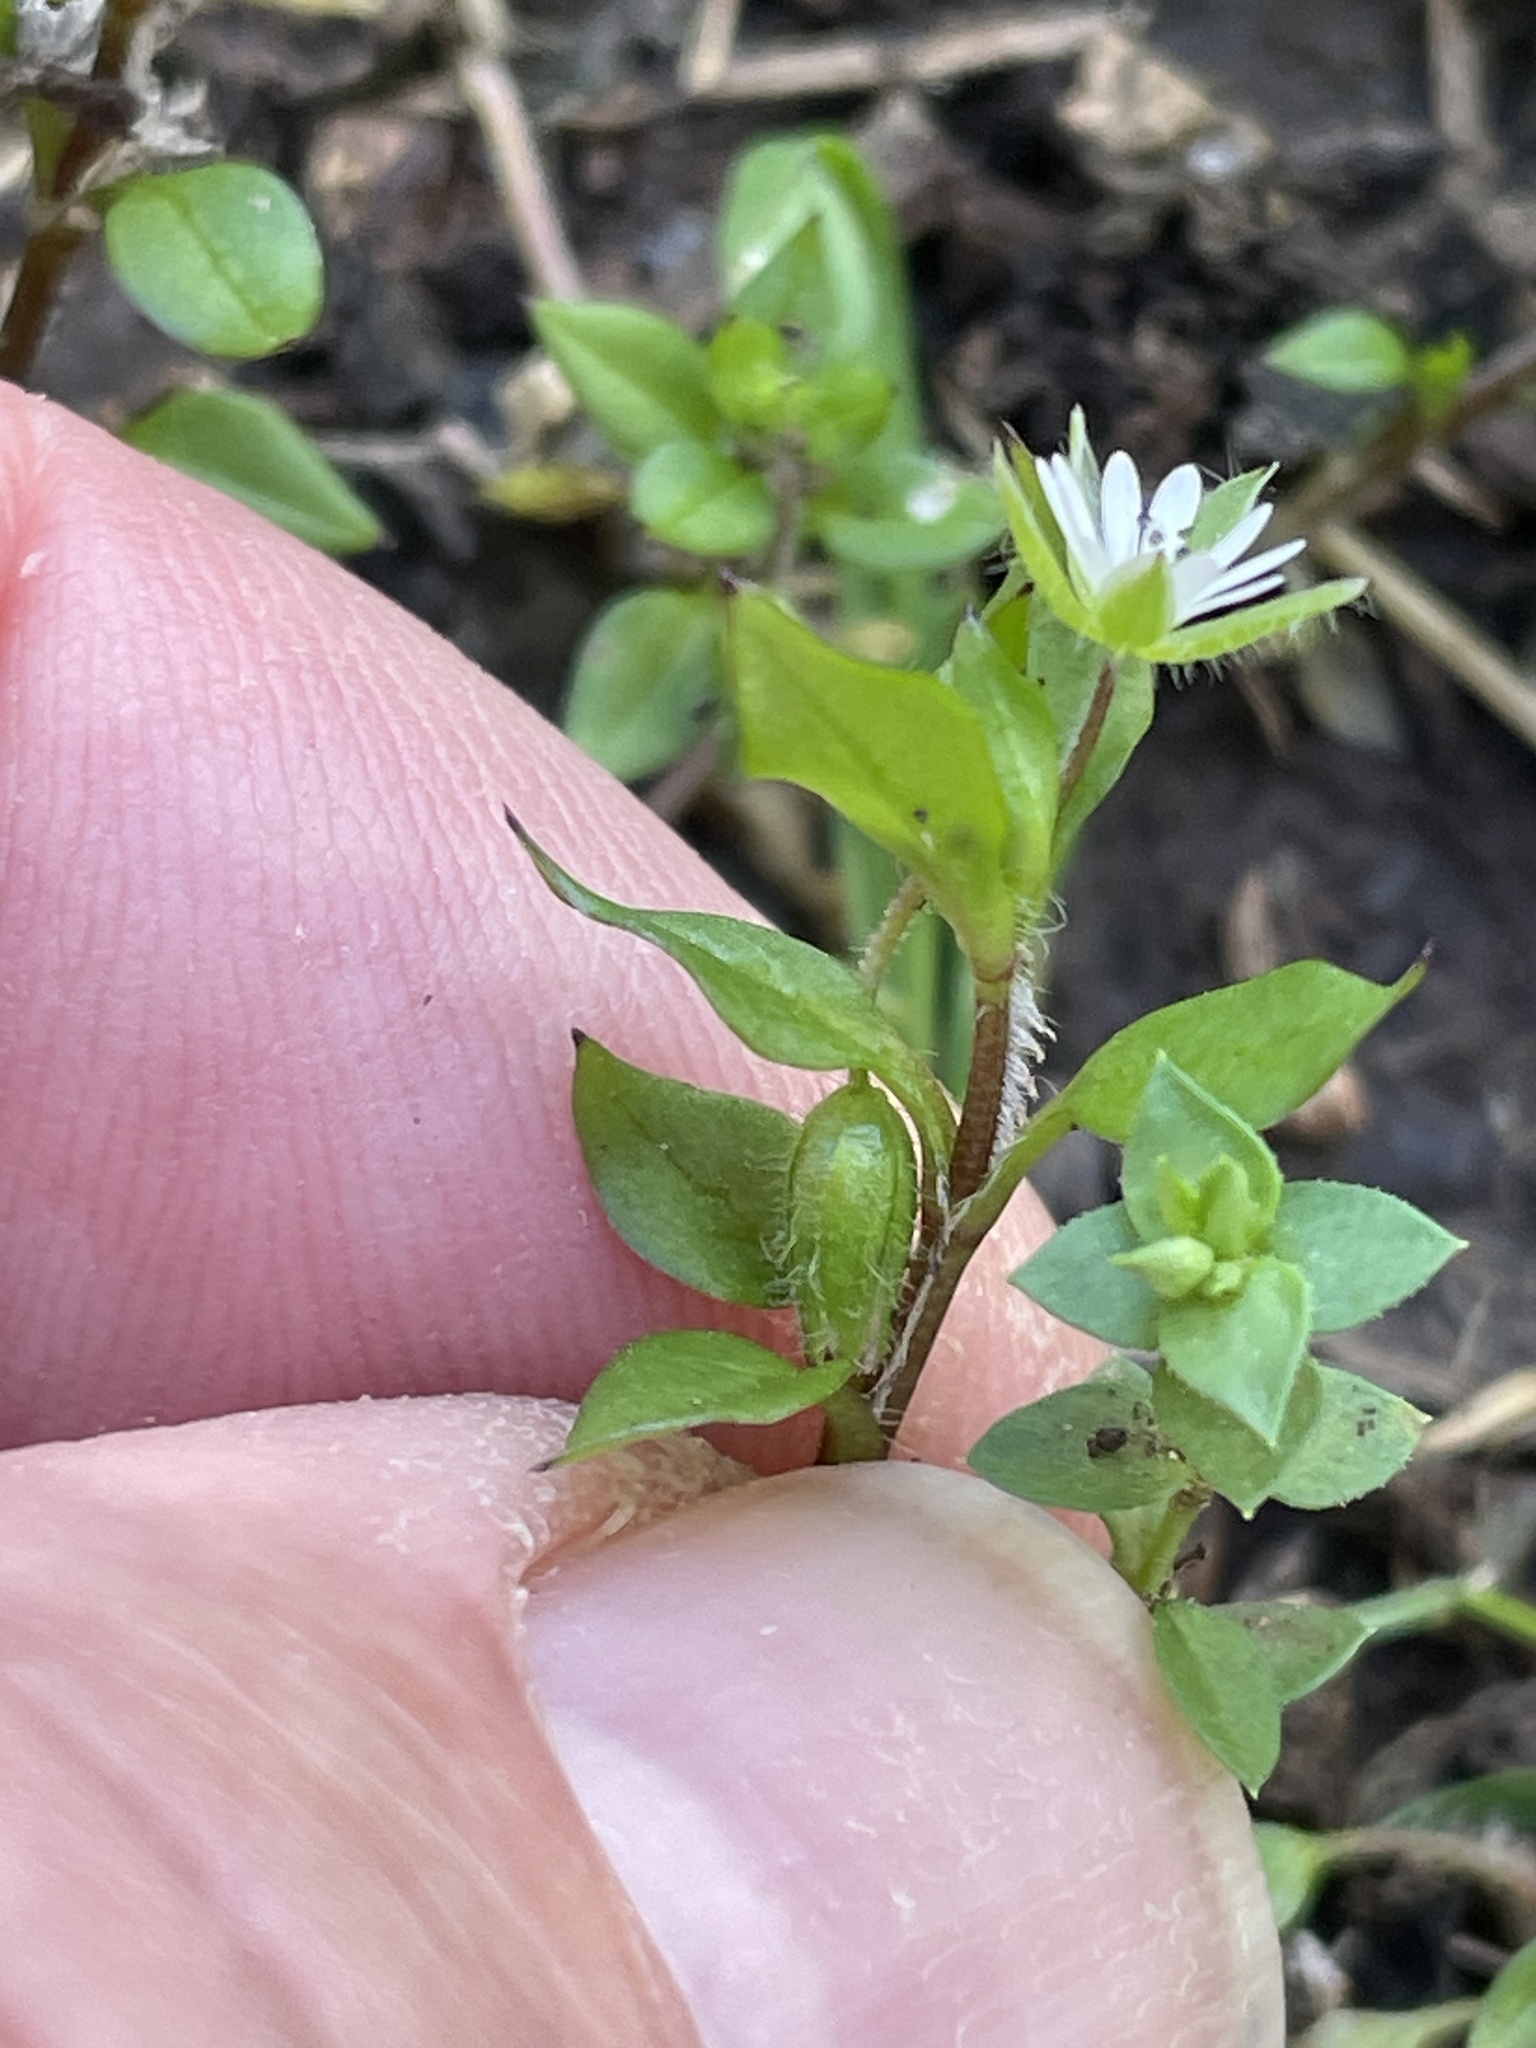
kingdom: Plantae
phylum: Tracheophyta
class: Magnoliopsida
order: Caryophyllales
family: Caryophyllaceae
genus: Stellaria
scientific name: Stellaria media
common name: Common chickweed
